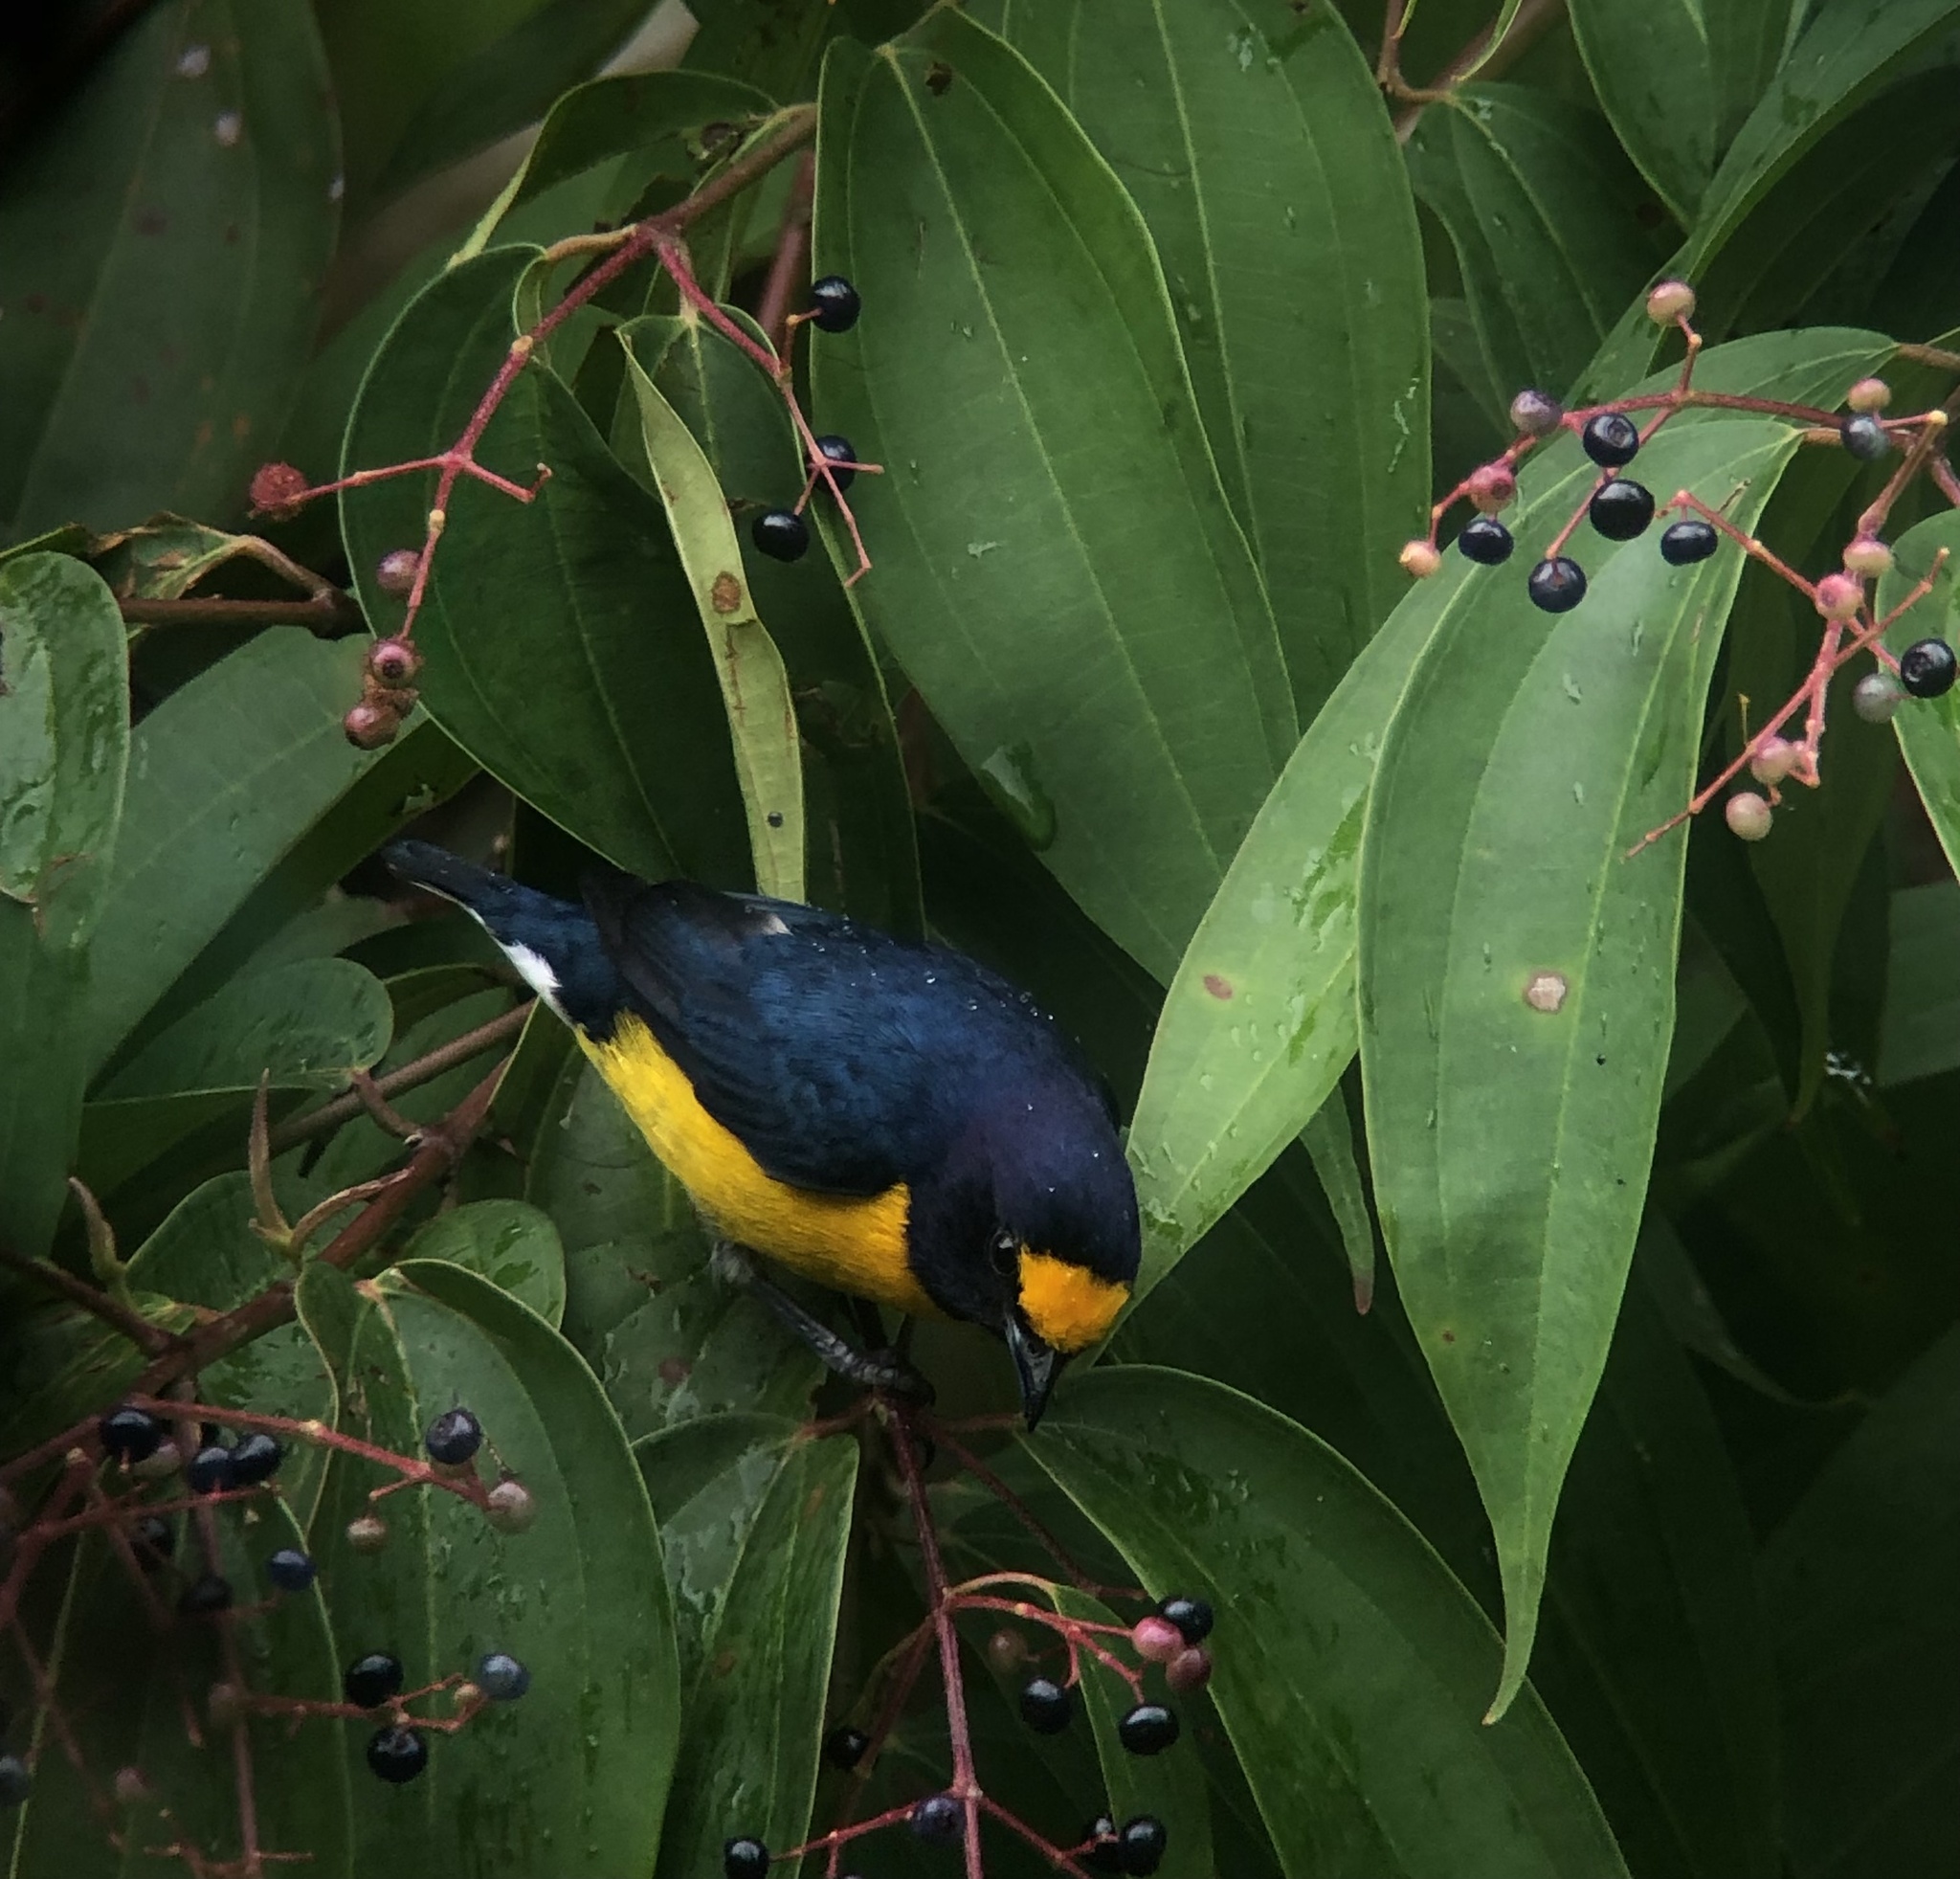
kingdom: Animalia
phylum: Chordata
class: Aves
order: Passeriformes
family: Fringillidae
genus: Euphonia
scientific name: Euphonia minuta
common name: White-vented euphonia
